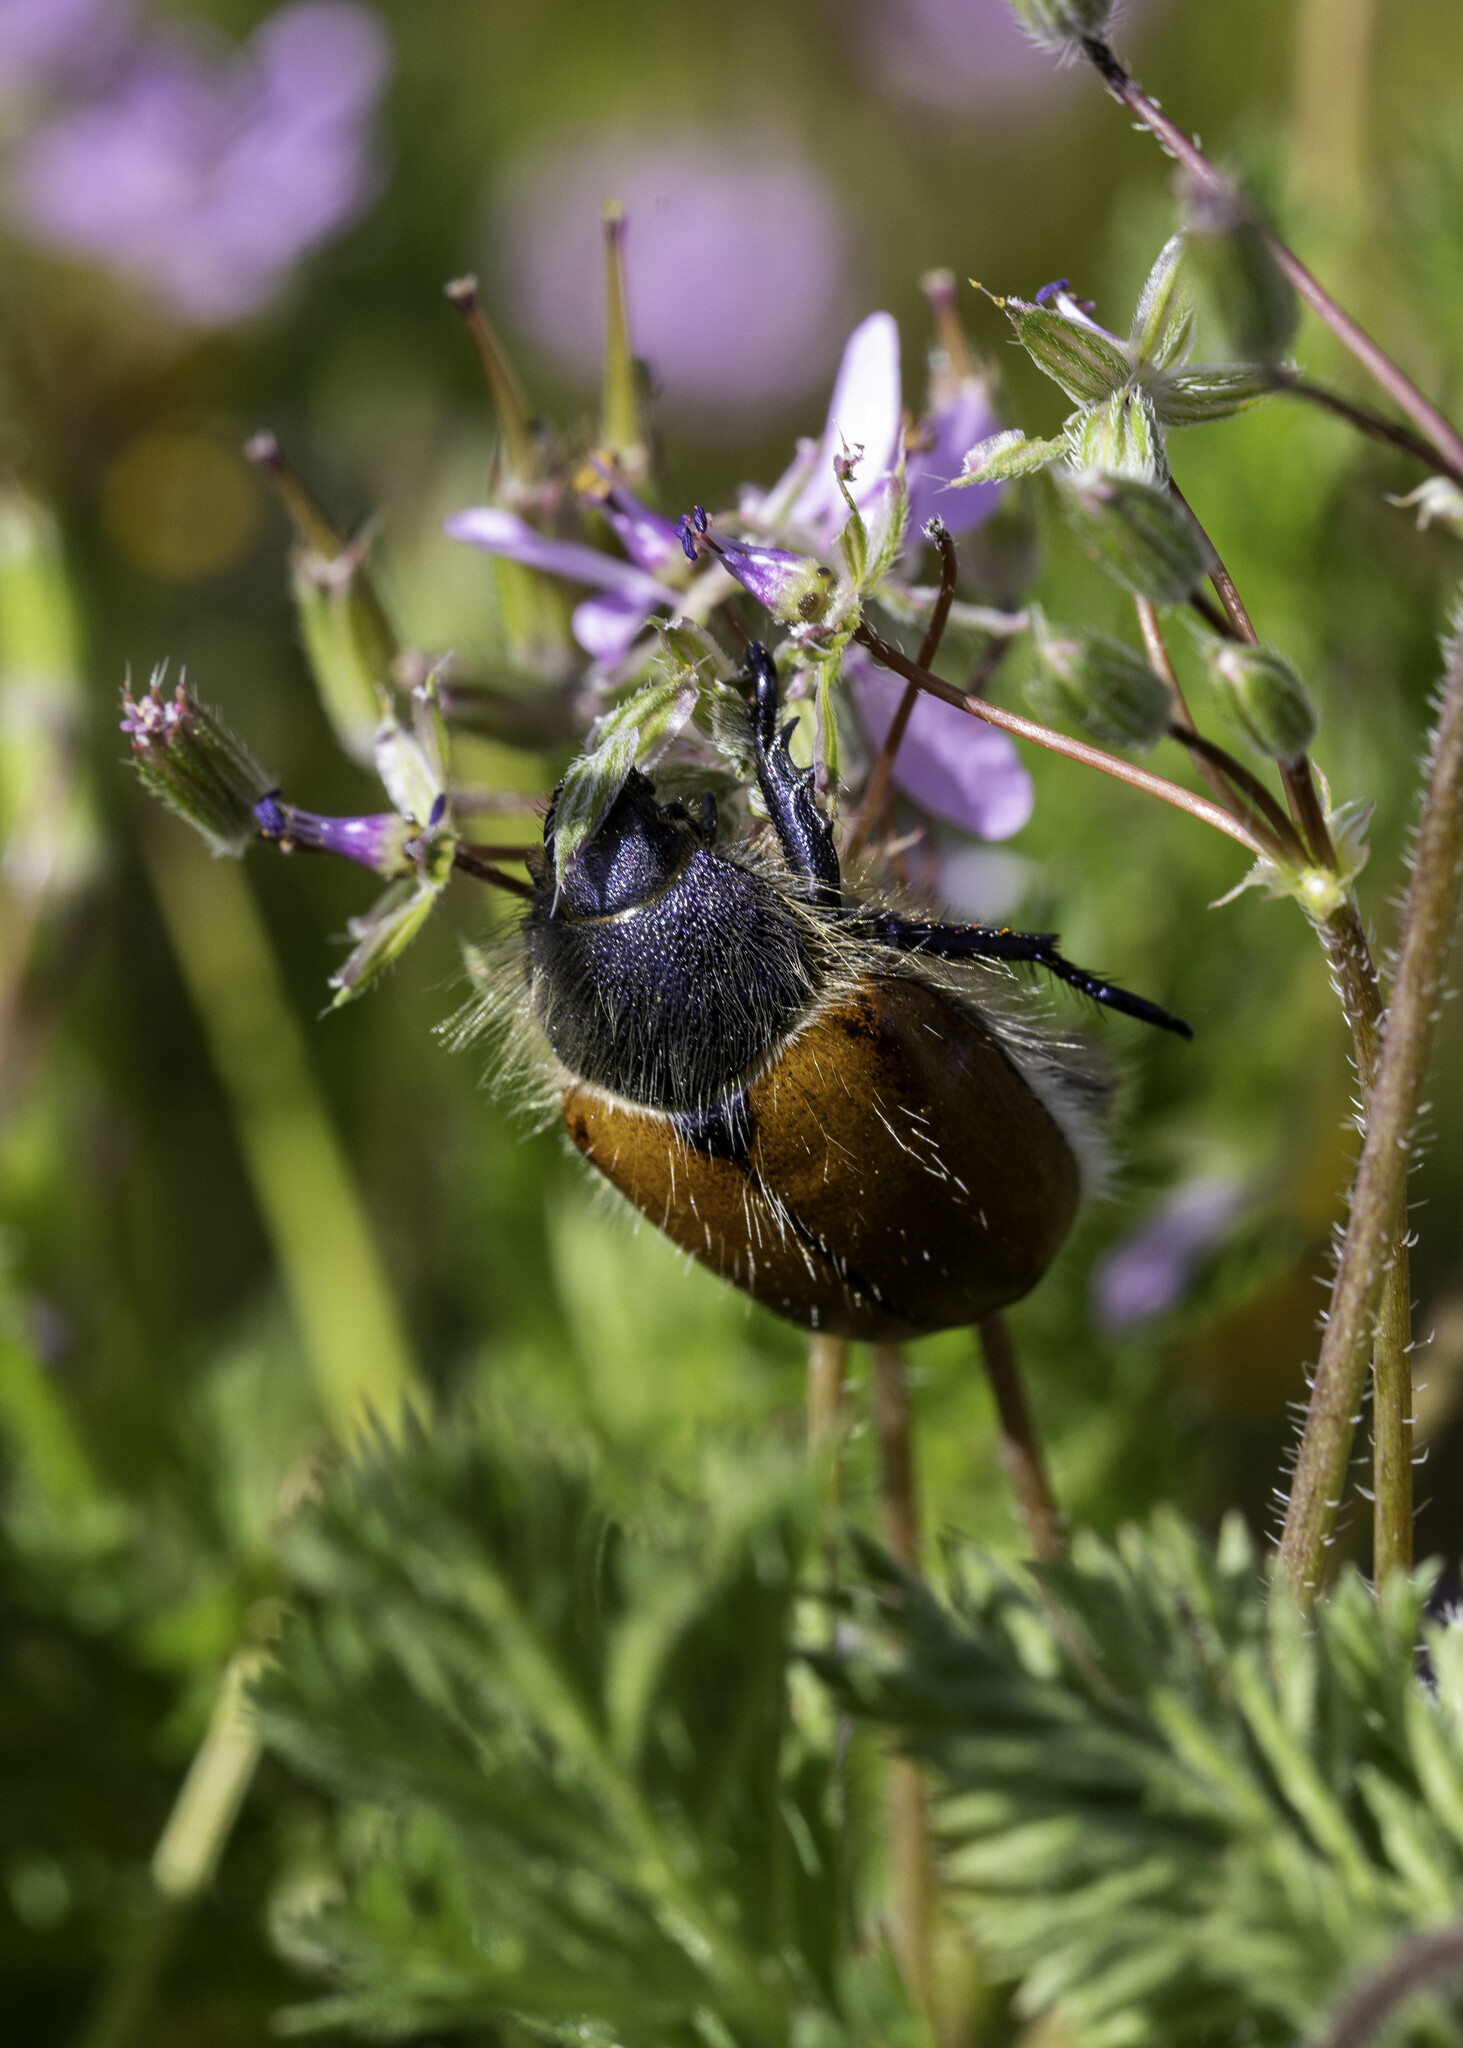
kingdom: Animalia
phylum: Arthropoda
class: Insecta
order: Coleoptera
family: Scarabaeidae
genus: Paracotalpa
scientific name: Paracotalpa ursina
